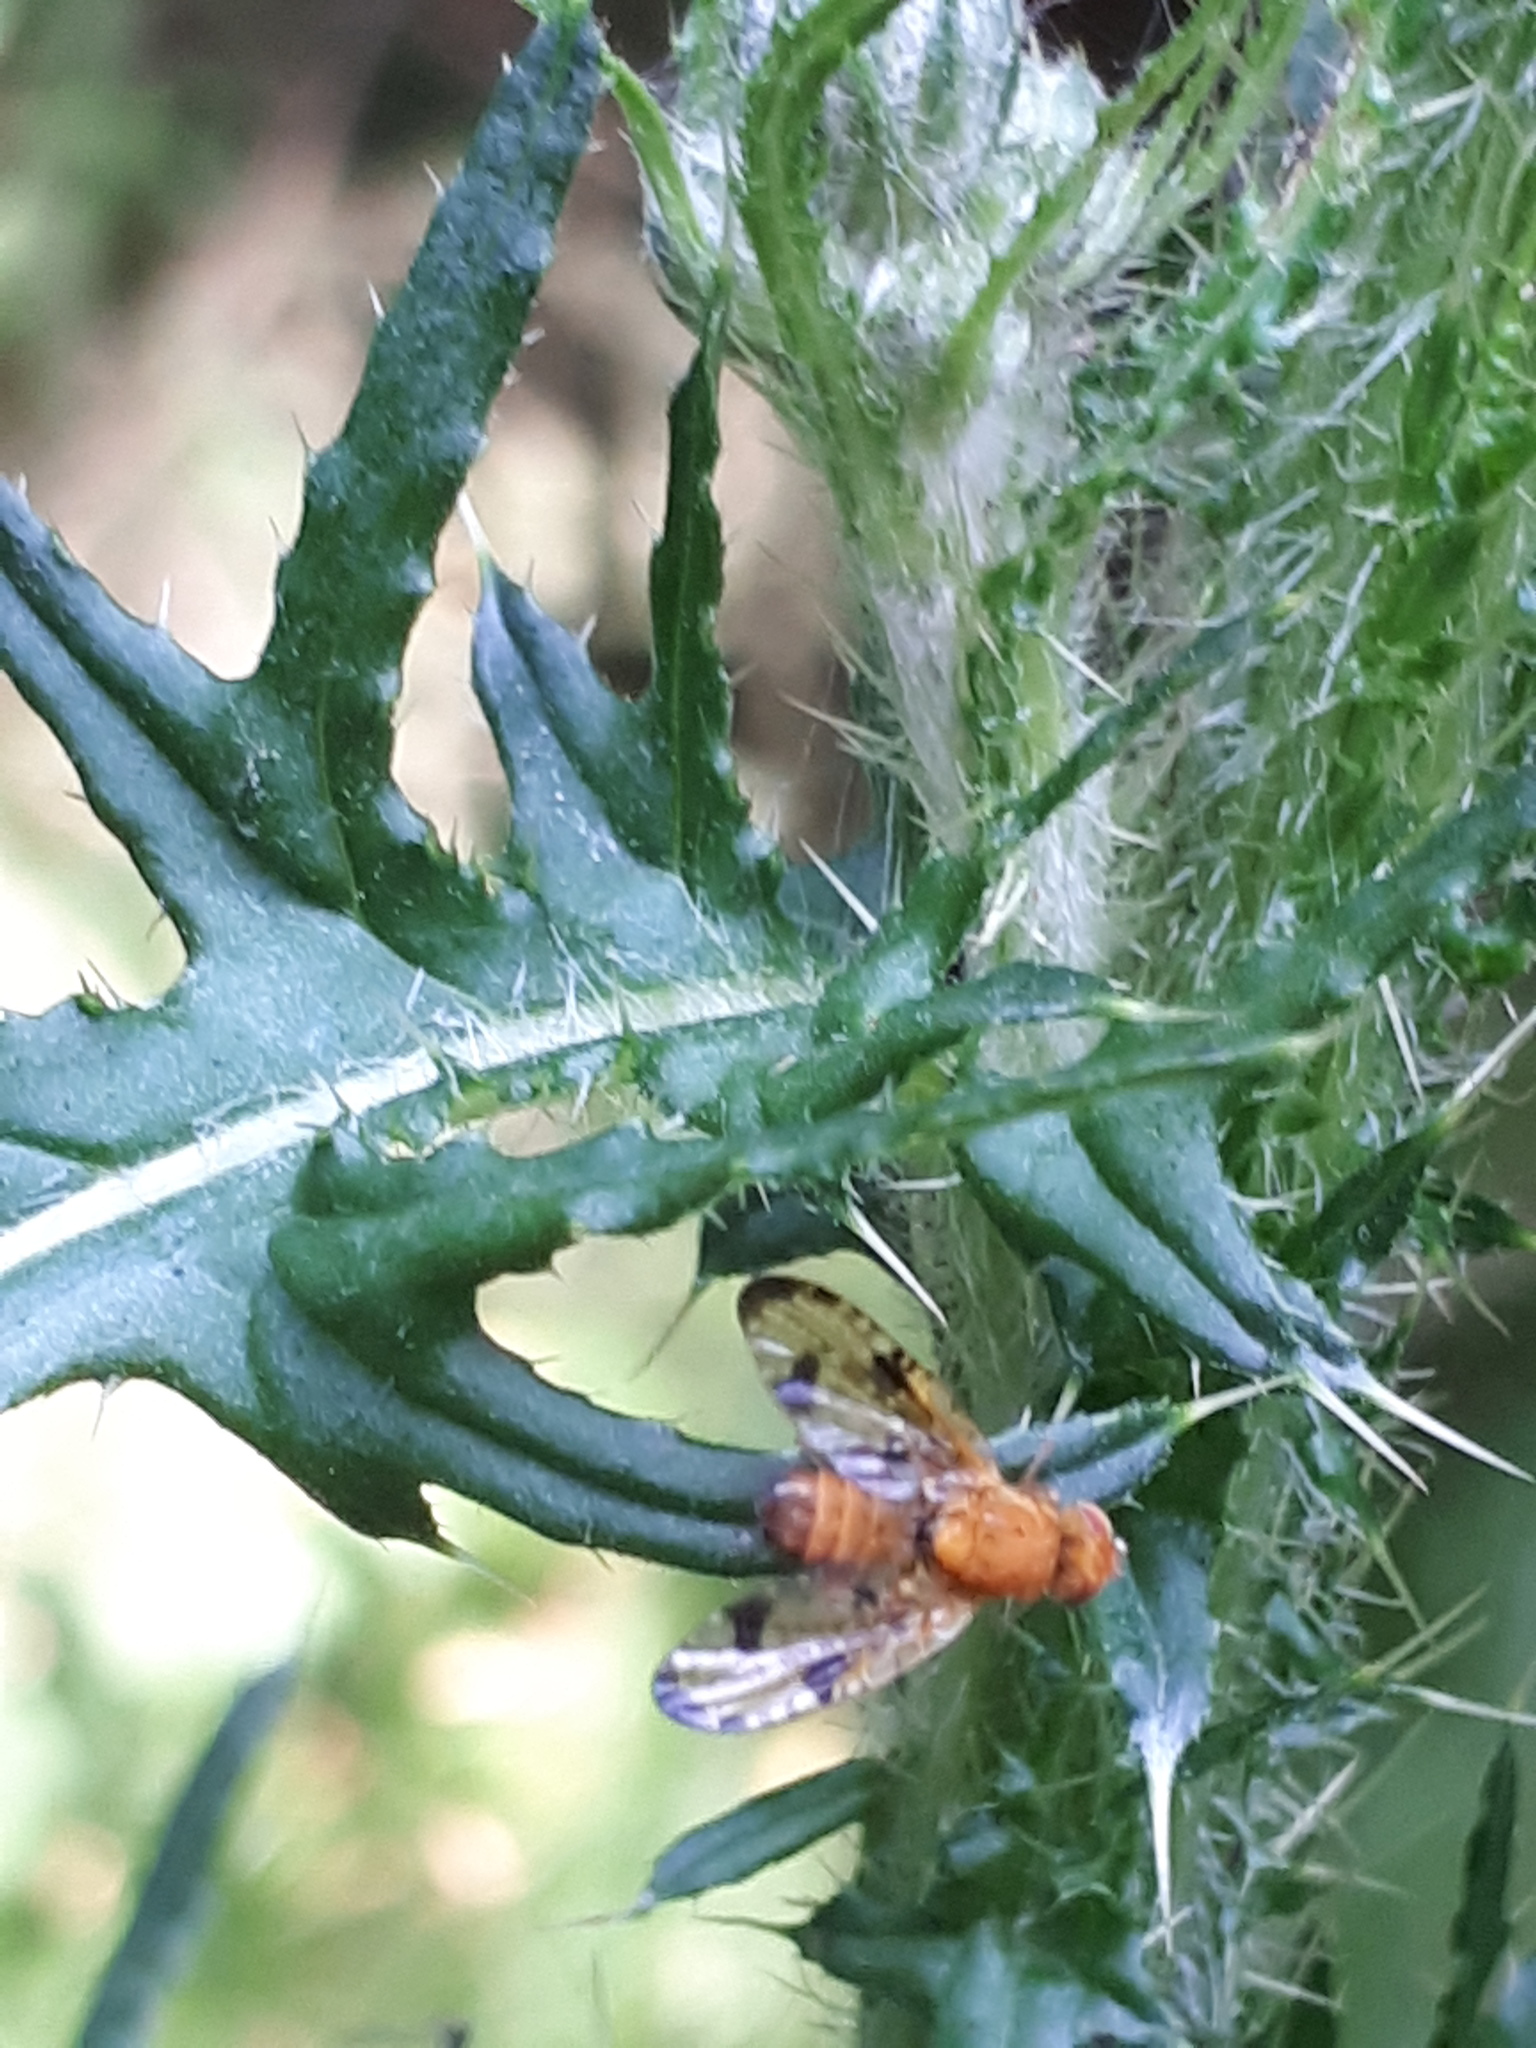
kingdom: Animalia
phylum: Arthropoda
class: Insecta
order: Diptera
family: Tephritidae
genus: Xyphosia
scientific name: Xyphosia miliaria
